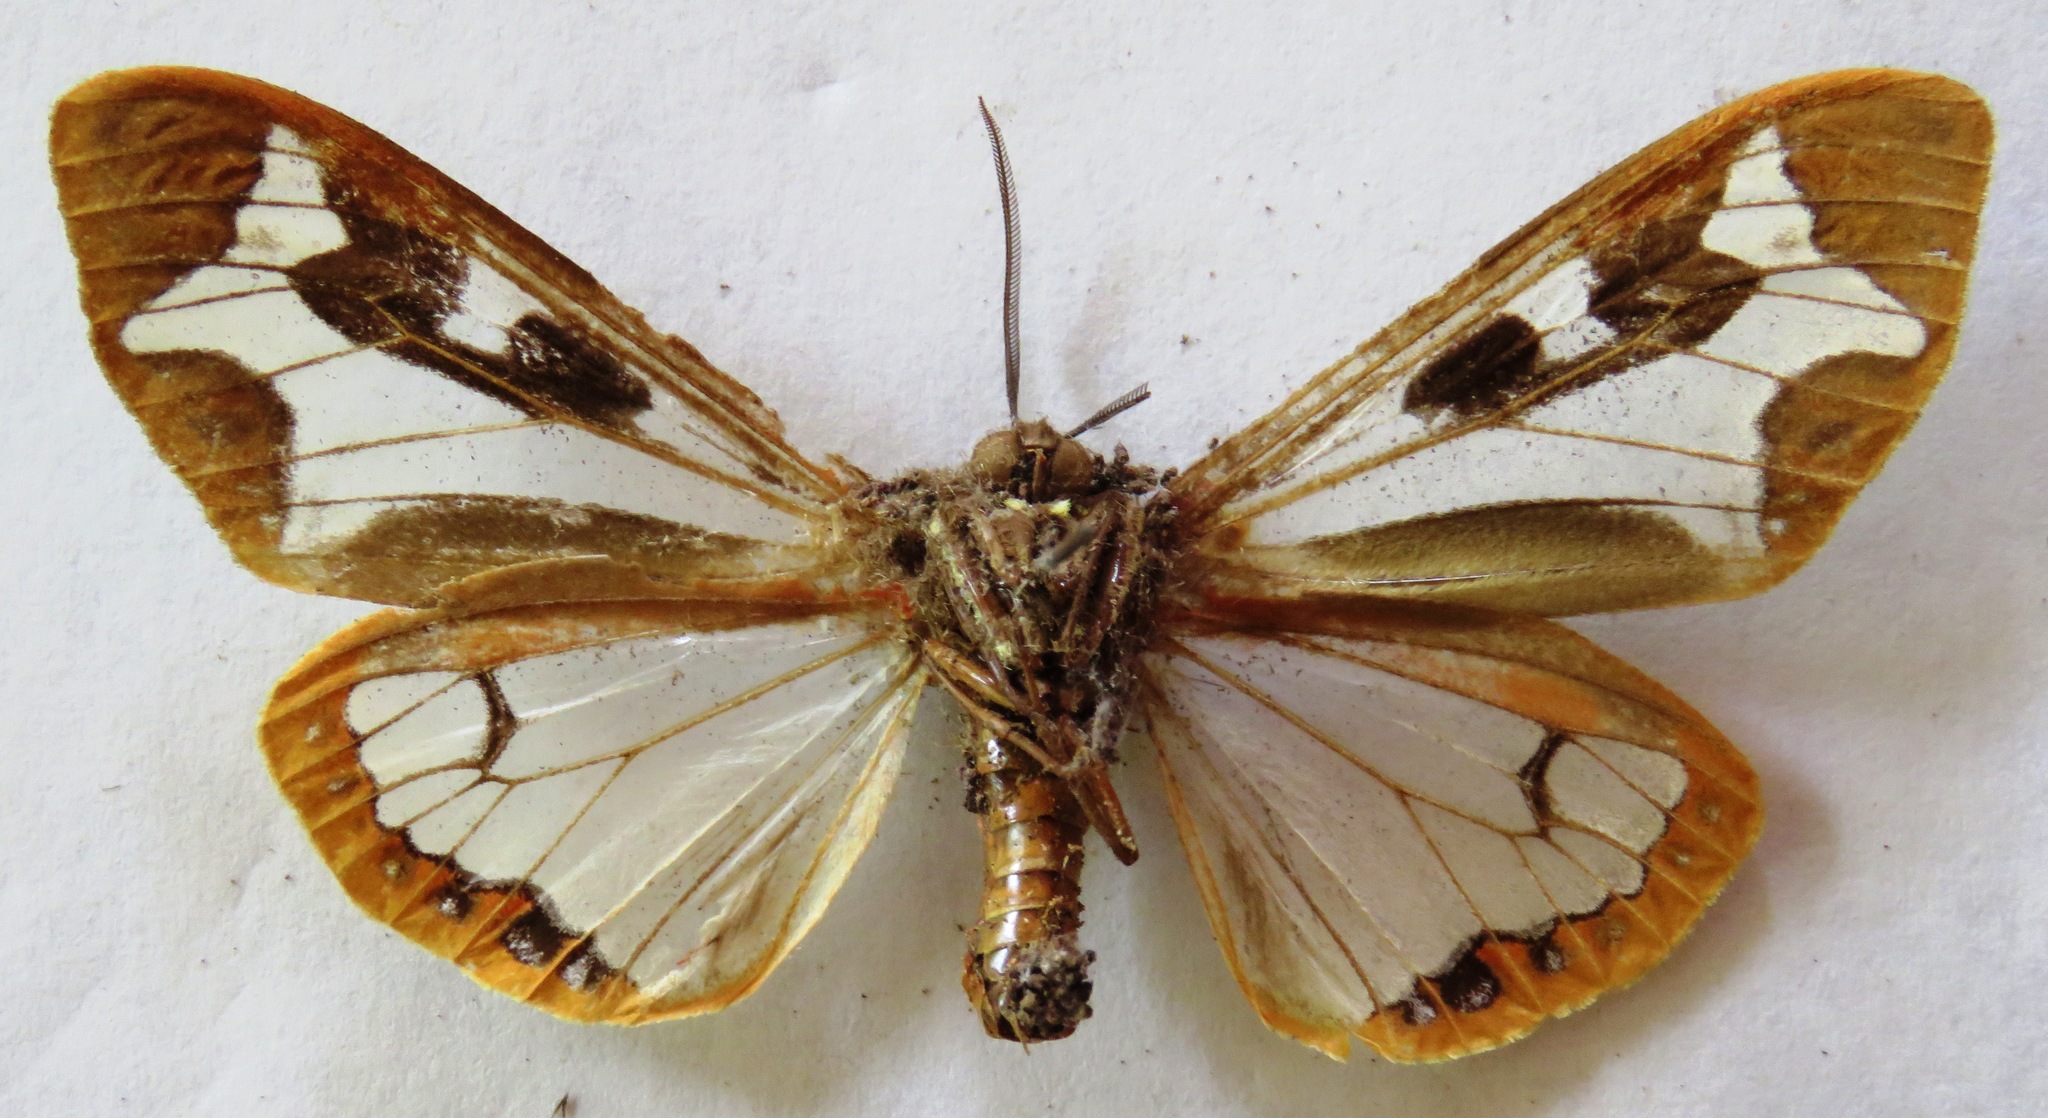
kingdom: Animalia
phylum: Arthropoda
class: Insecta
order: Lepidoptera
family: Erebidae
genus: Dysschema
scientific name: Dysschema mariamne
